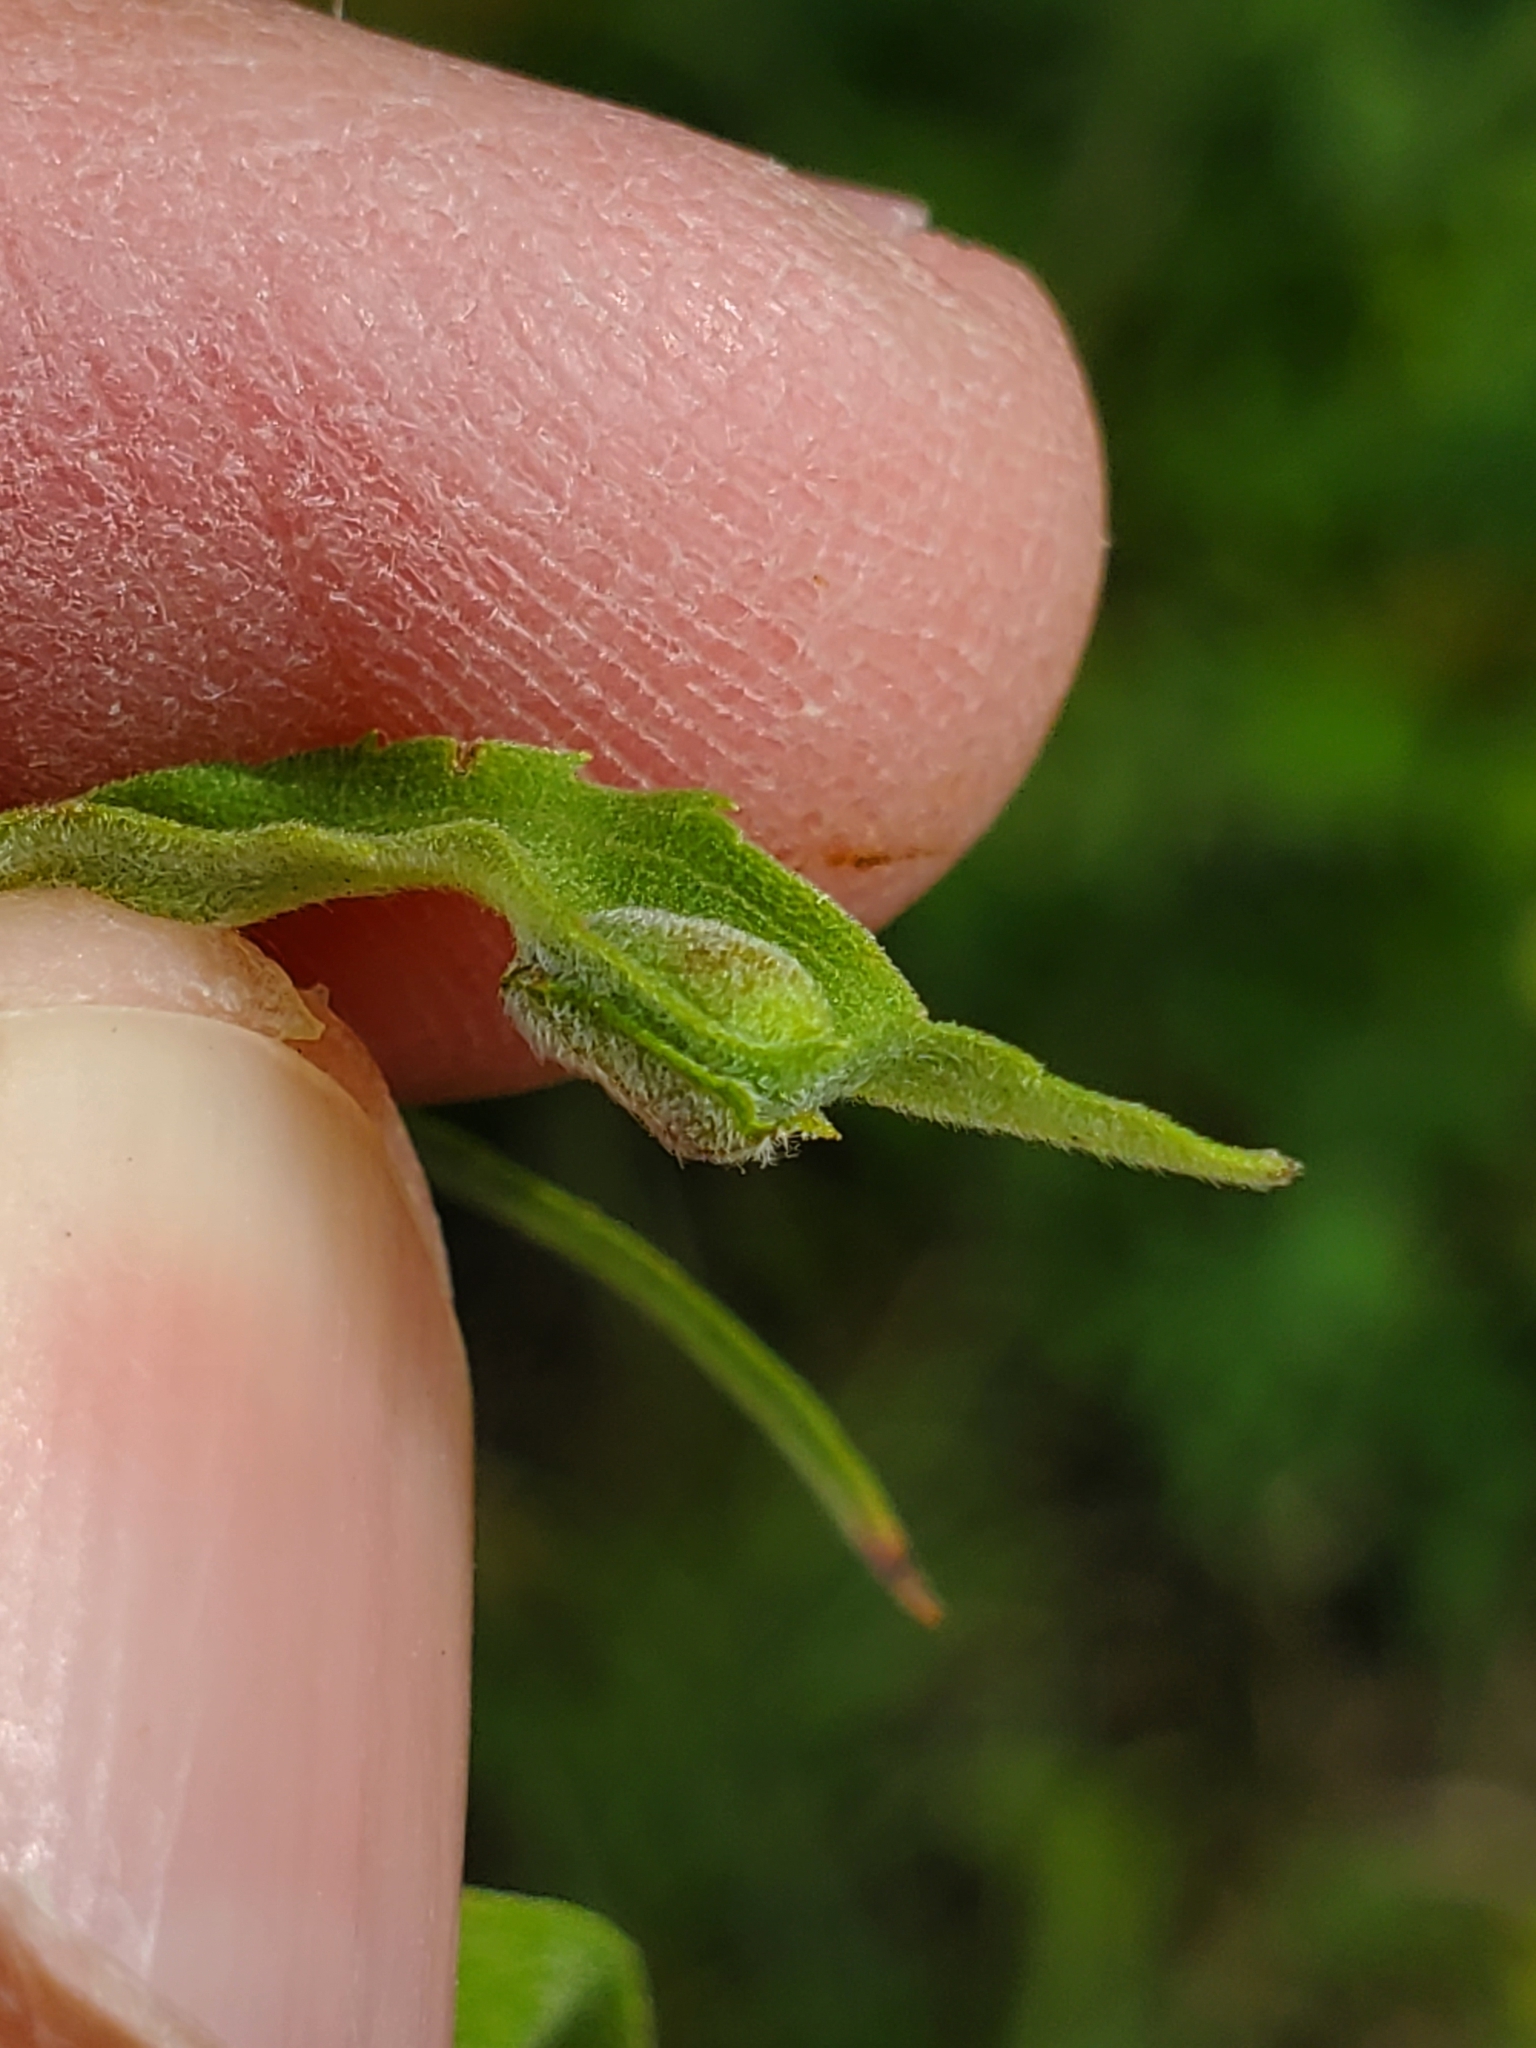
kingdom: Animalia
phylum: Arthropoda
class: Insecta
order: Diptera
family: Cecidomyiidae
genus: Asphondylia
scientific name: Asphondylia solidaginis
